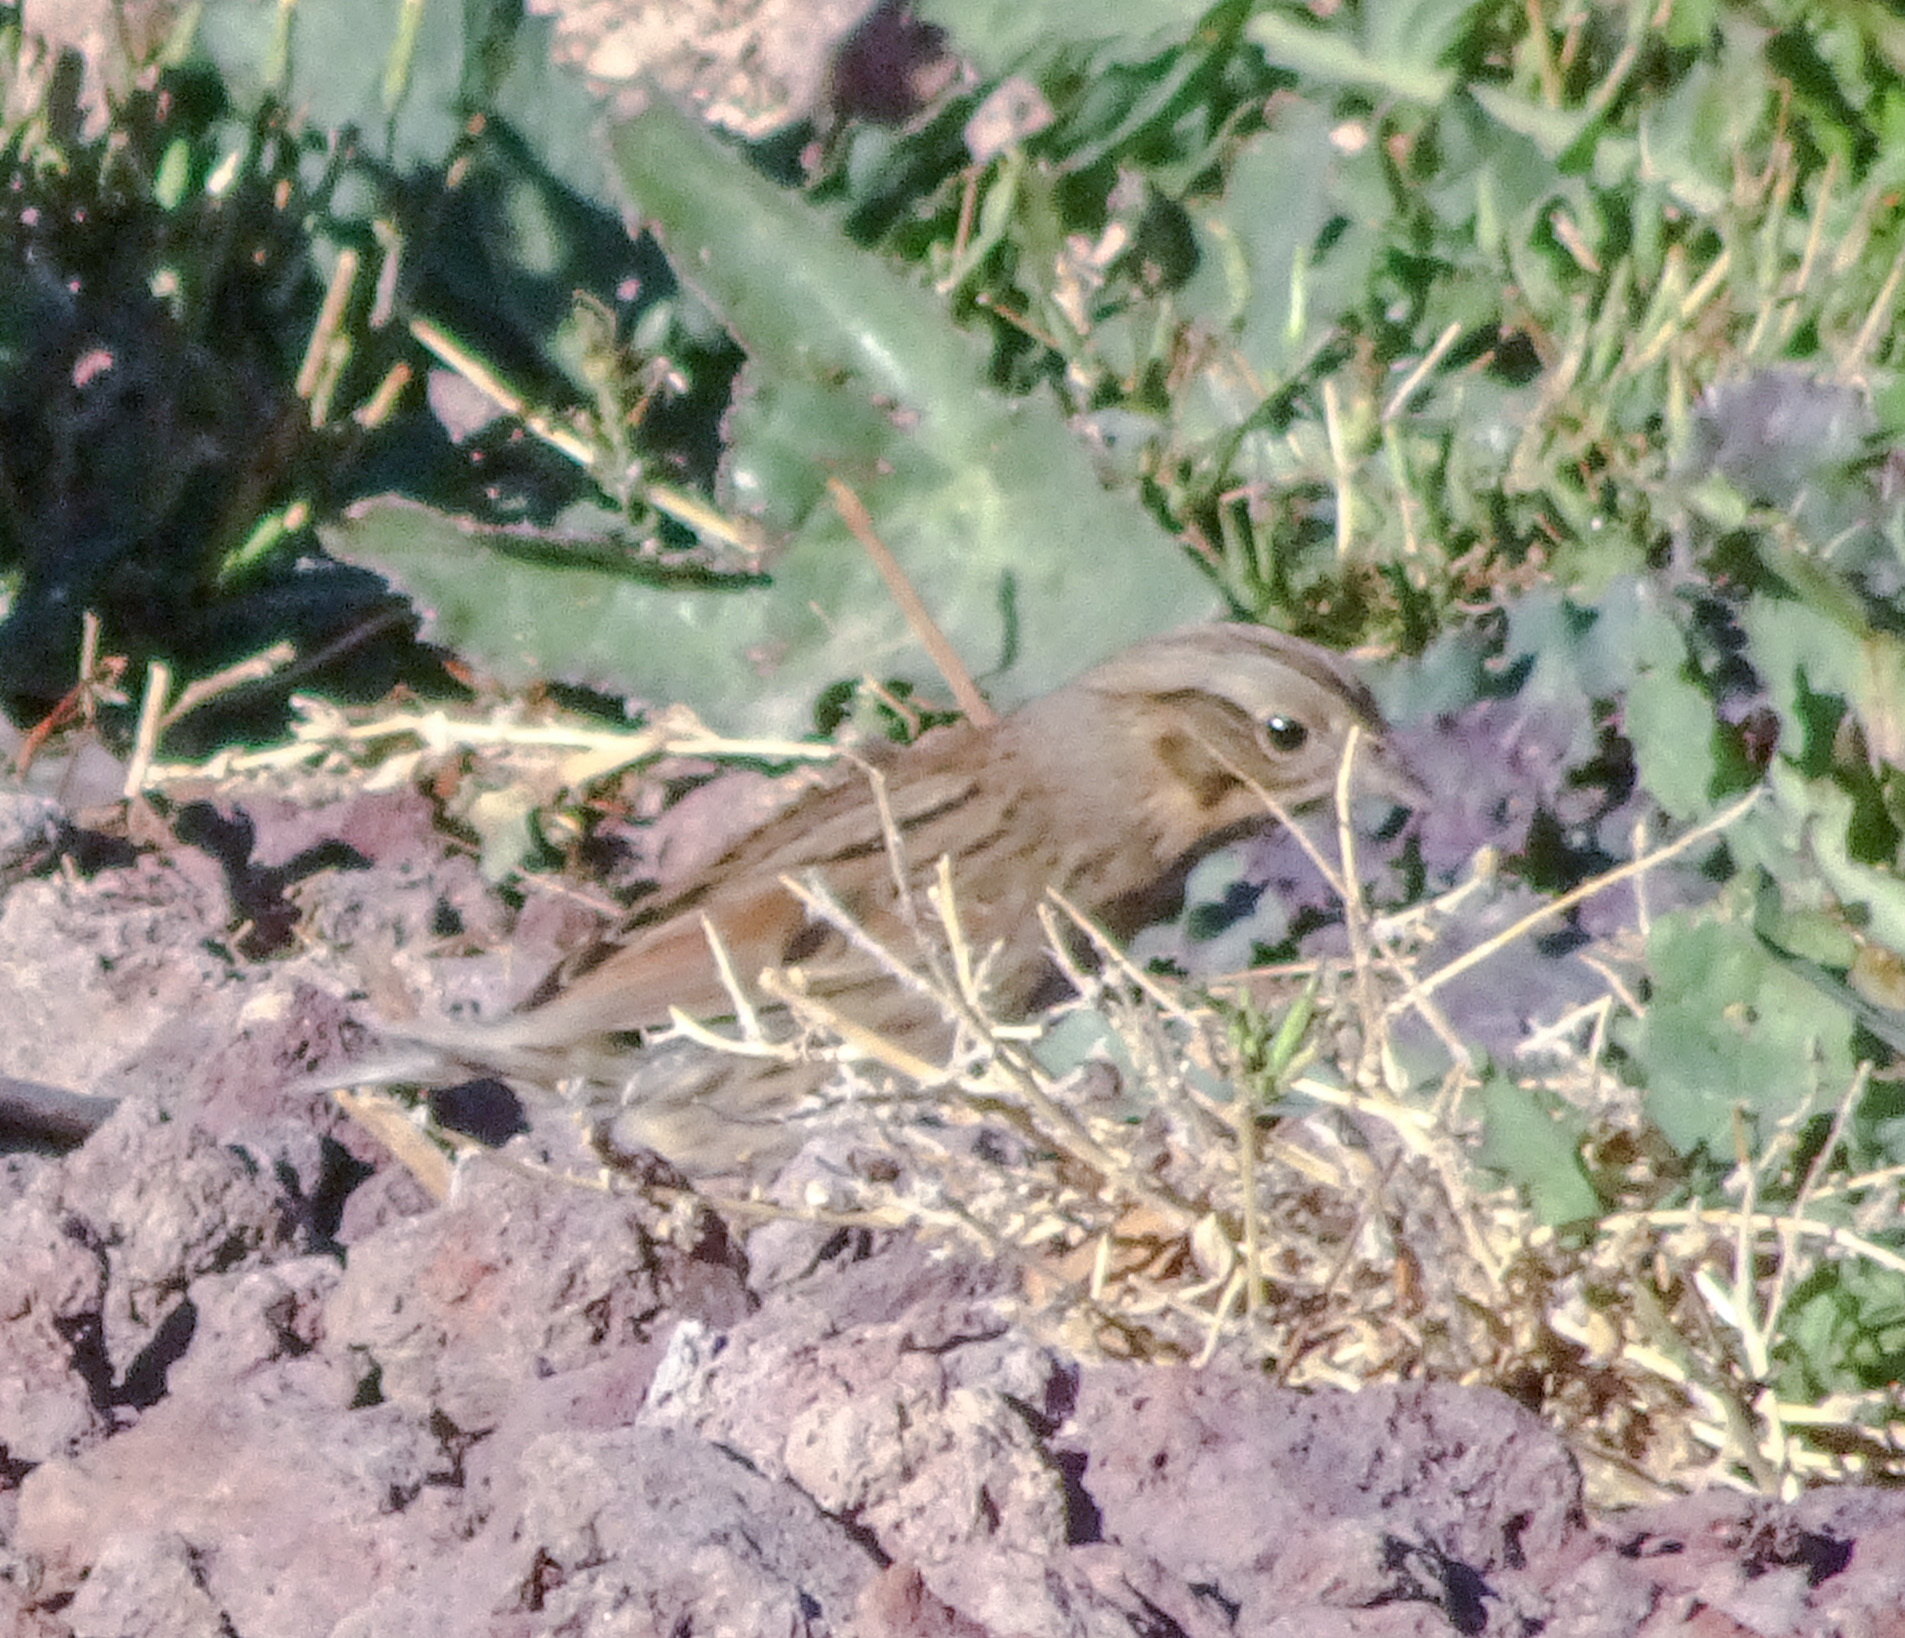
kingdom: Animalia
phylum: Chordata
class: Aves
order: Passeriformes
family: Passerellidae
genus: Melospiza
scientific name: Melospiza lincolnii
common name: Lincoln's sparrow
